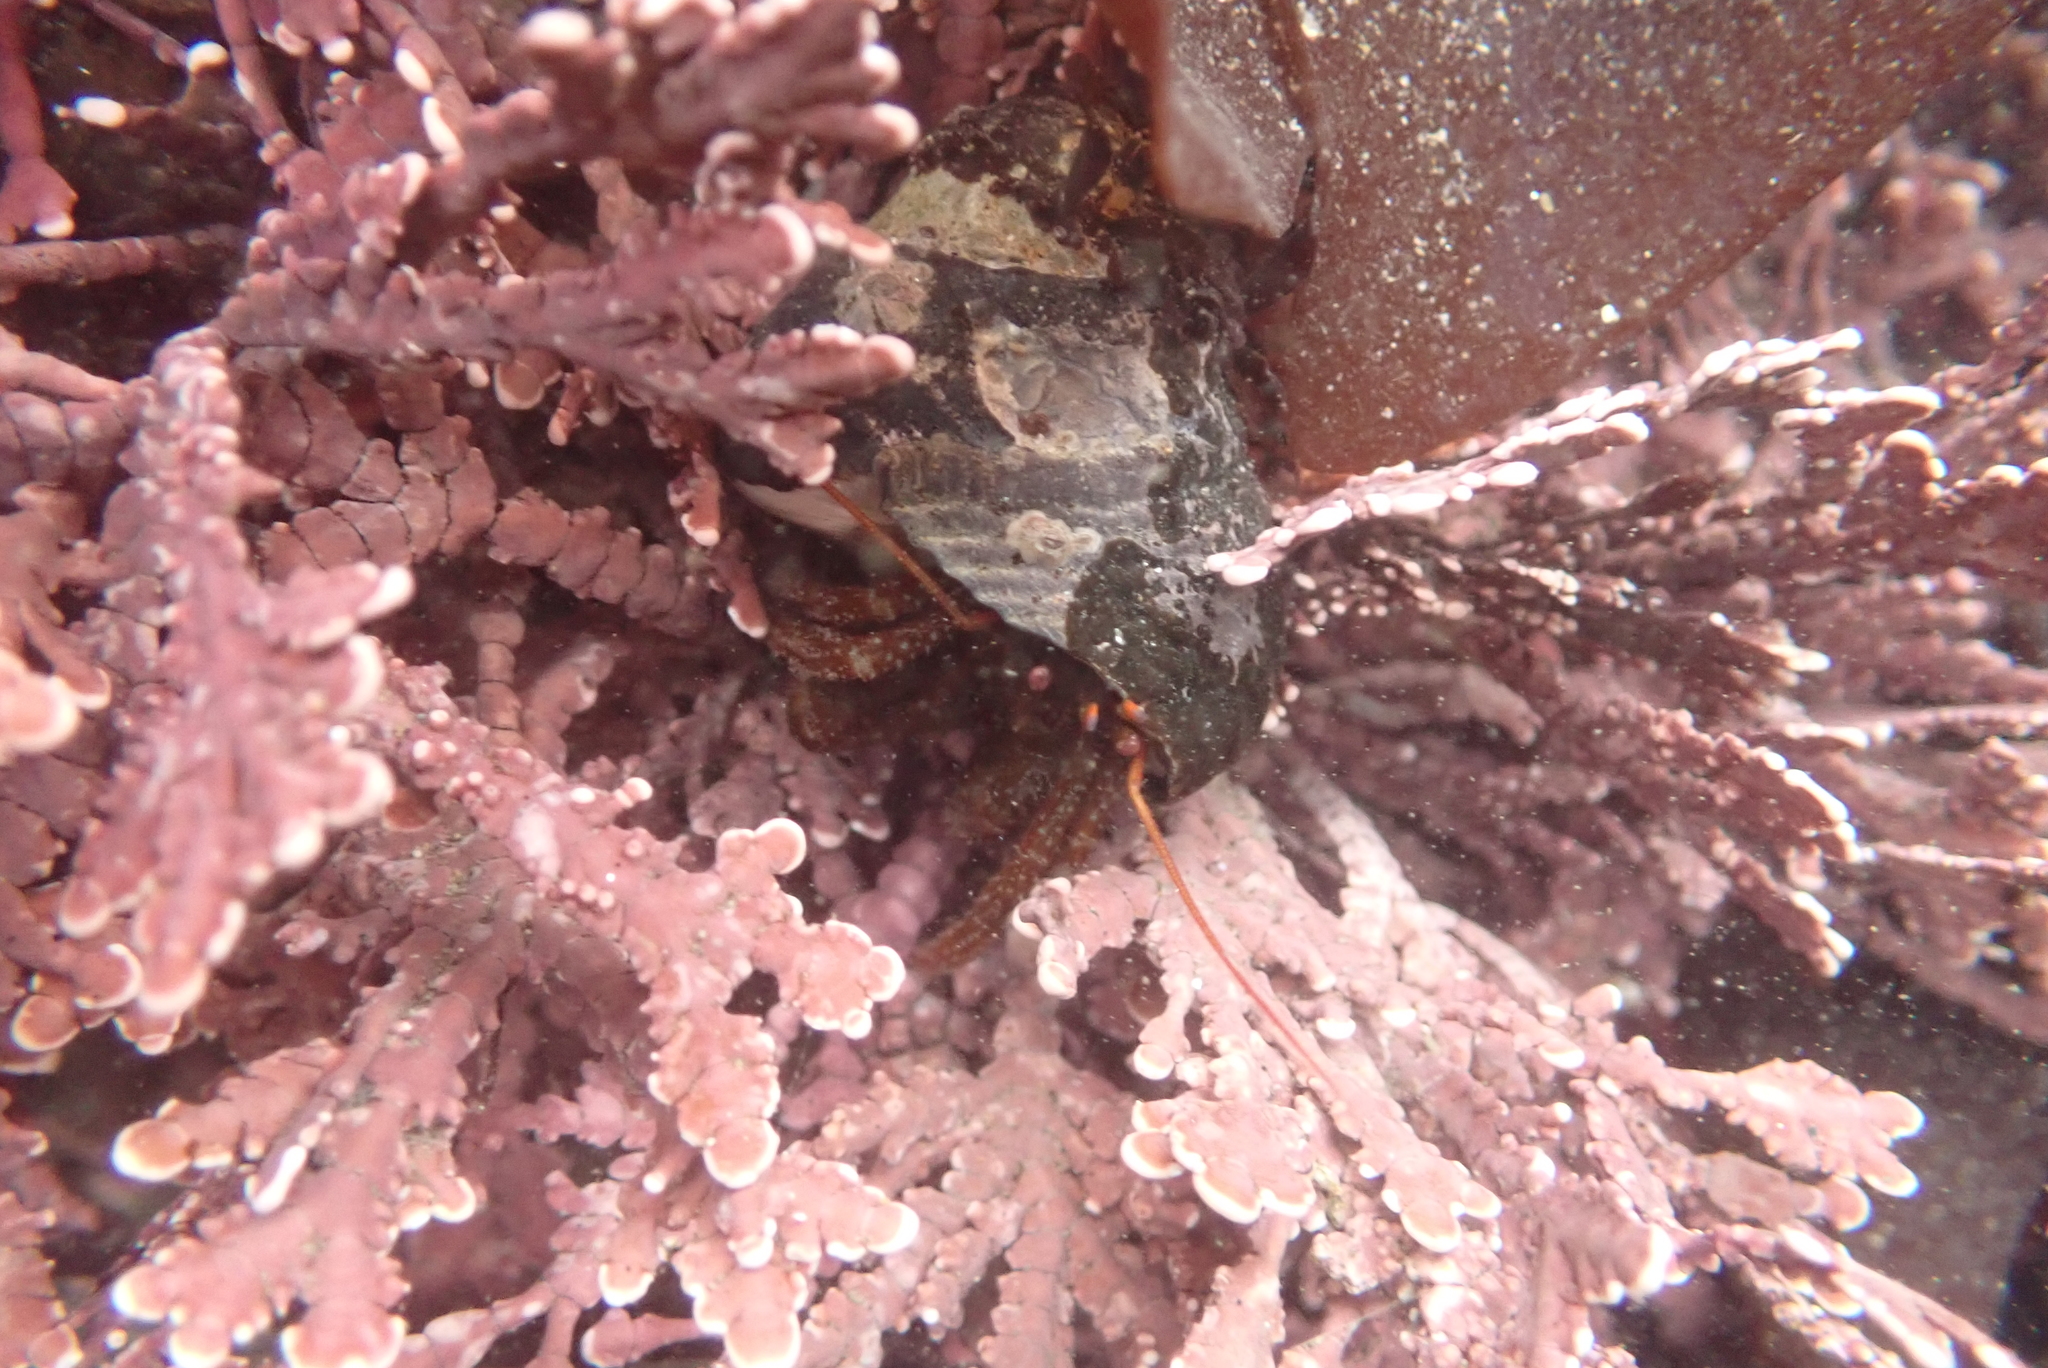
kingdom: Animalia
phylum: Arthropoda
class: Malacostraca
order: Decapoda
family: Paguridae
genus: Pagurus
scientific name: Pagurus granosimanus
